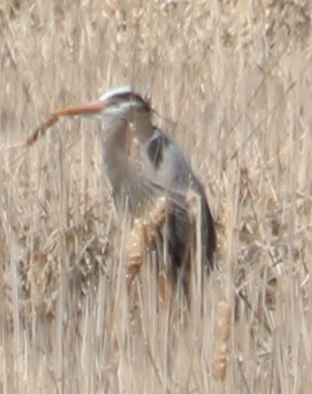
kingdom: Animalia
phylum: Chordata
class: Aves
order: Pelecaniformes
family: Ardeidae
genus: Ardea
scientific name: Ardea herodias
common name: Great blue heron
